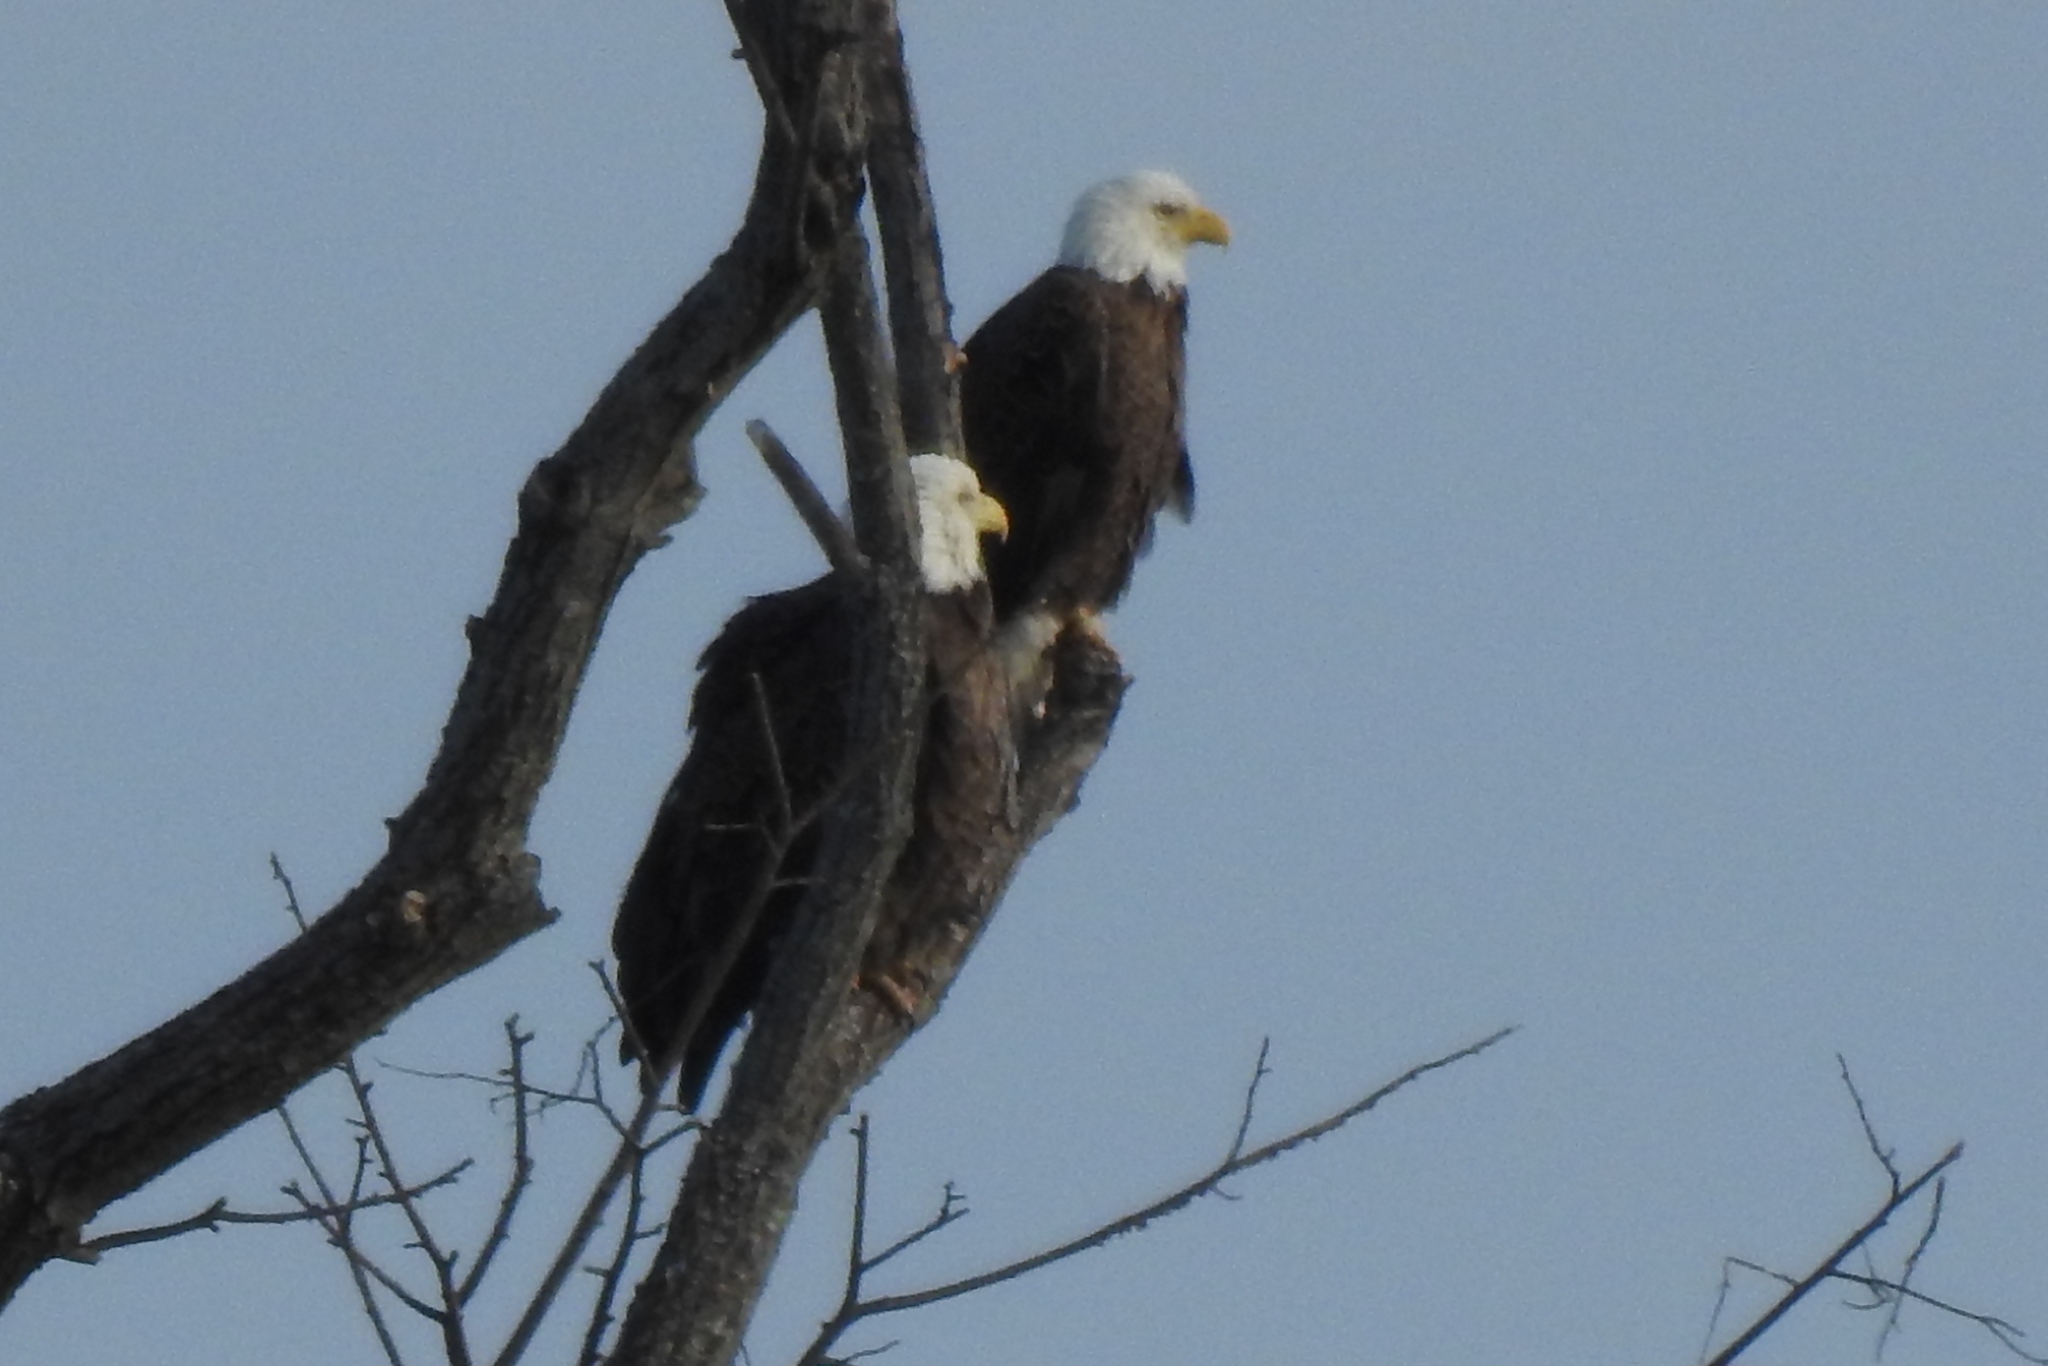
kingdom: Animalia
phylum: Chordata
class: Aves
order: Accipitriformes
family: Accipitridae
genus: Haliaeetus
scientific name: Haliaeetus leucocephalus
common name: Bald eagle
